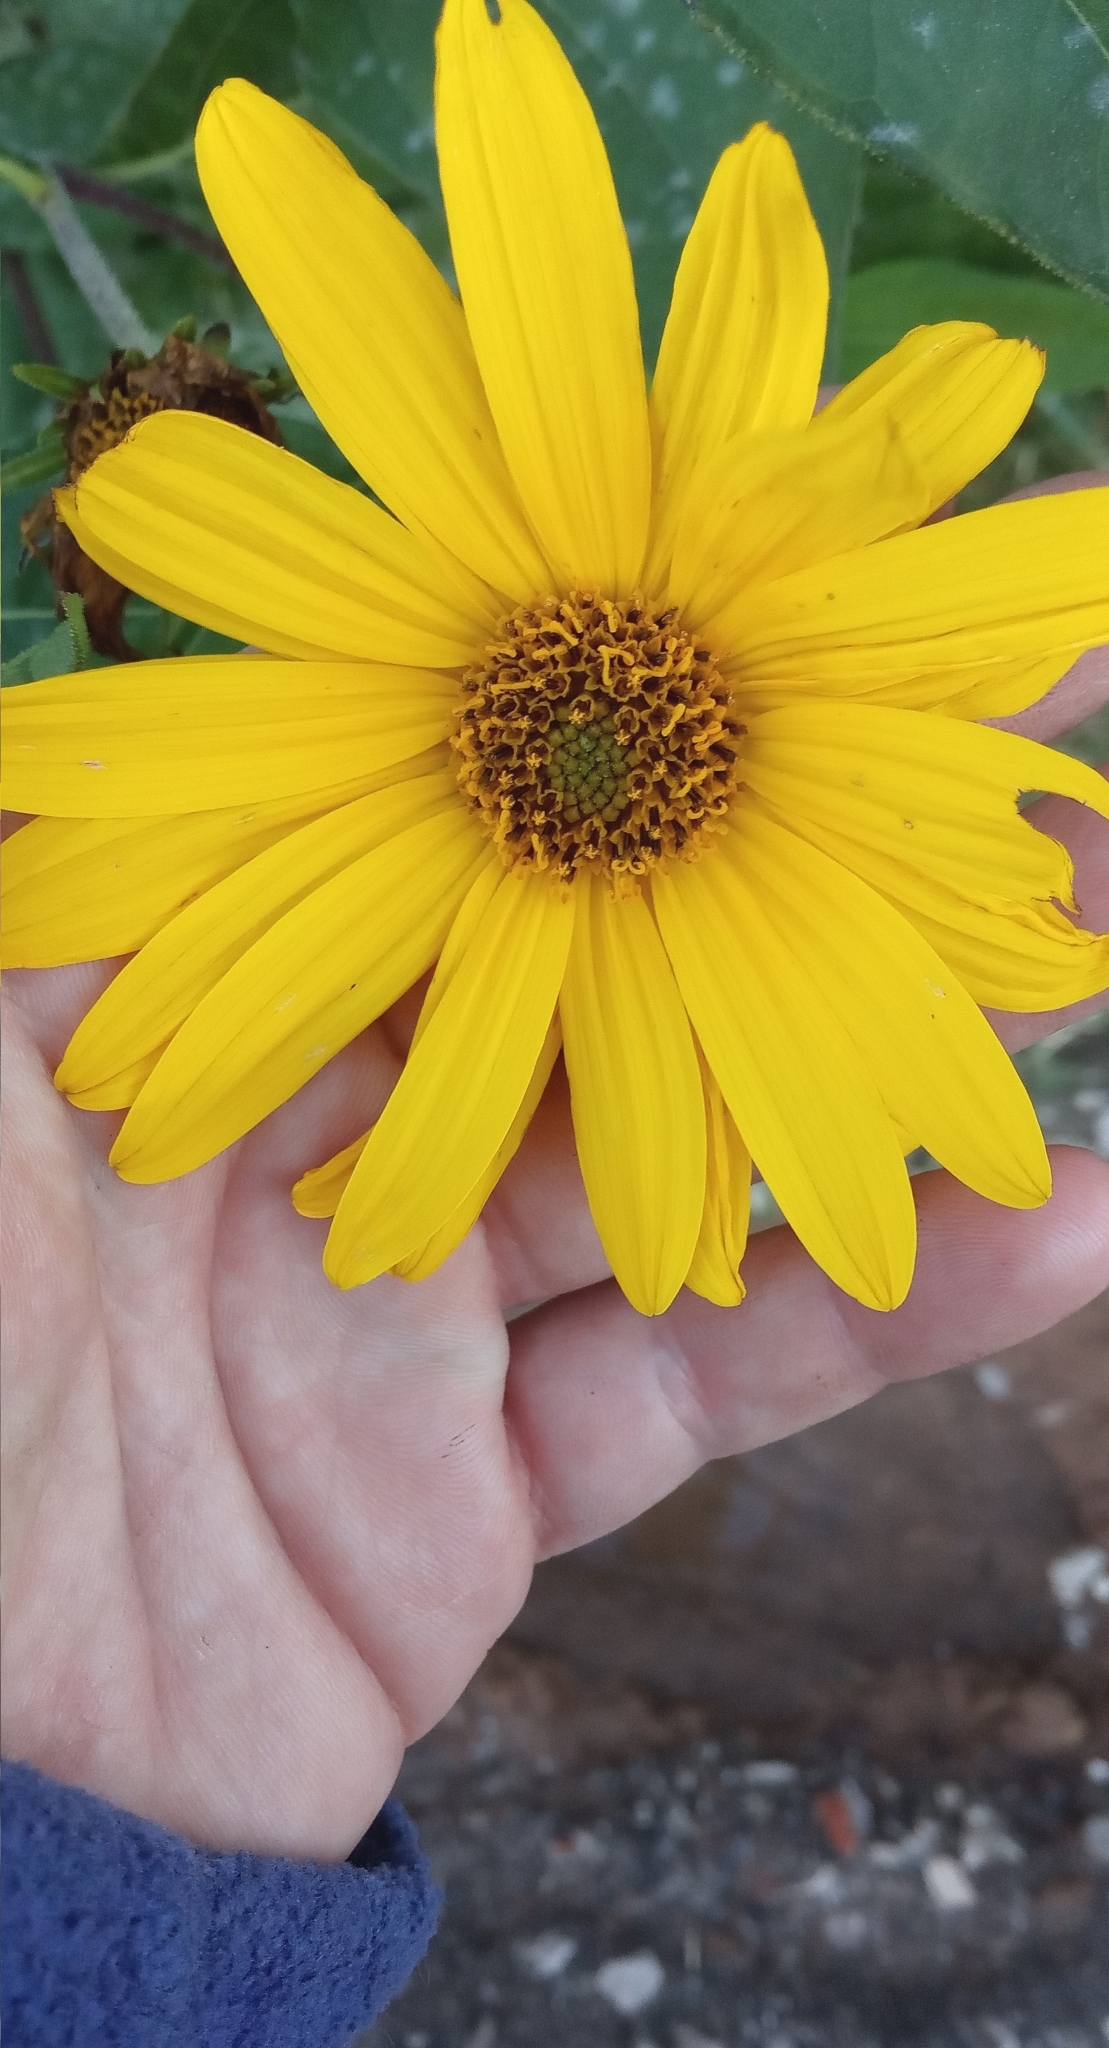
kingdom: Plantae
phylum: Tracheophyta
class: Magnoliopsida
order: Asterales
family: Asteraceae
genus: Helianthus
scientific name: Helianthus tuberosus
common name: Jerusalem artichoke
